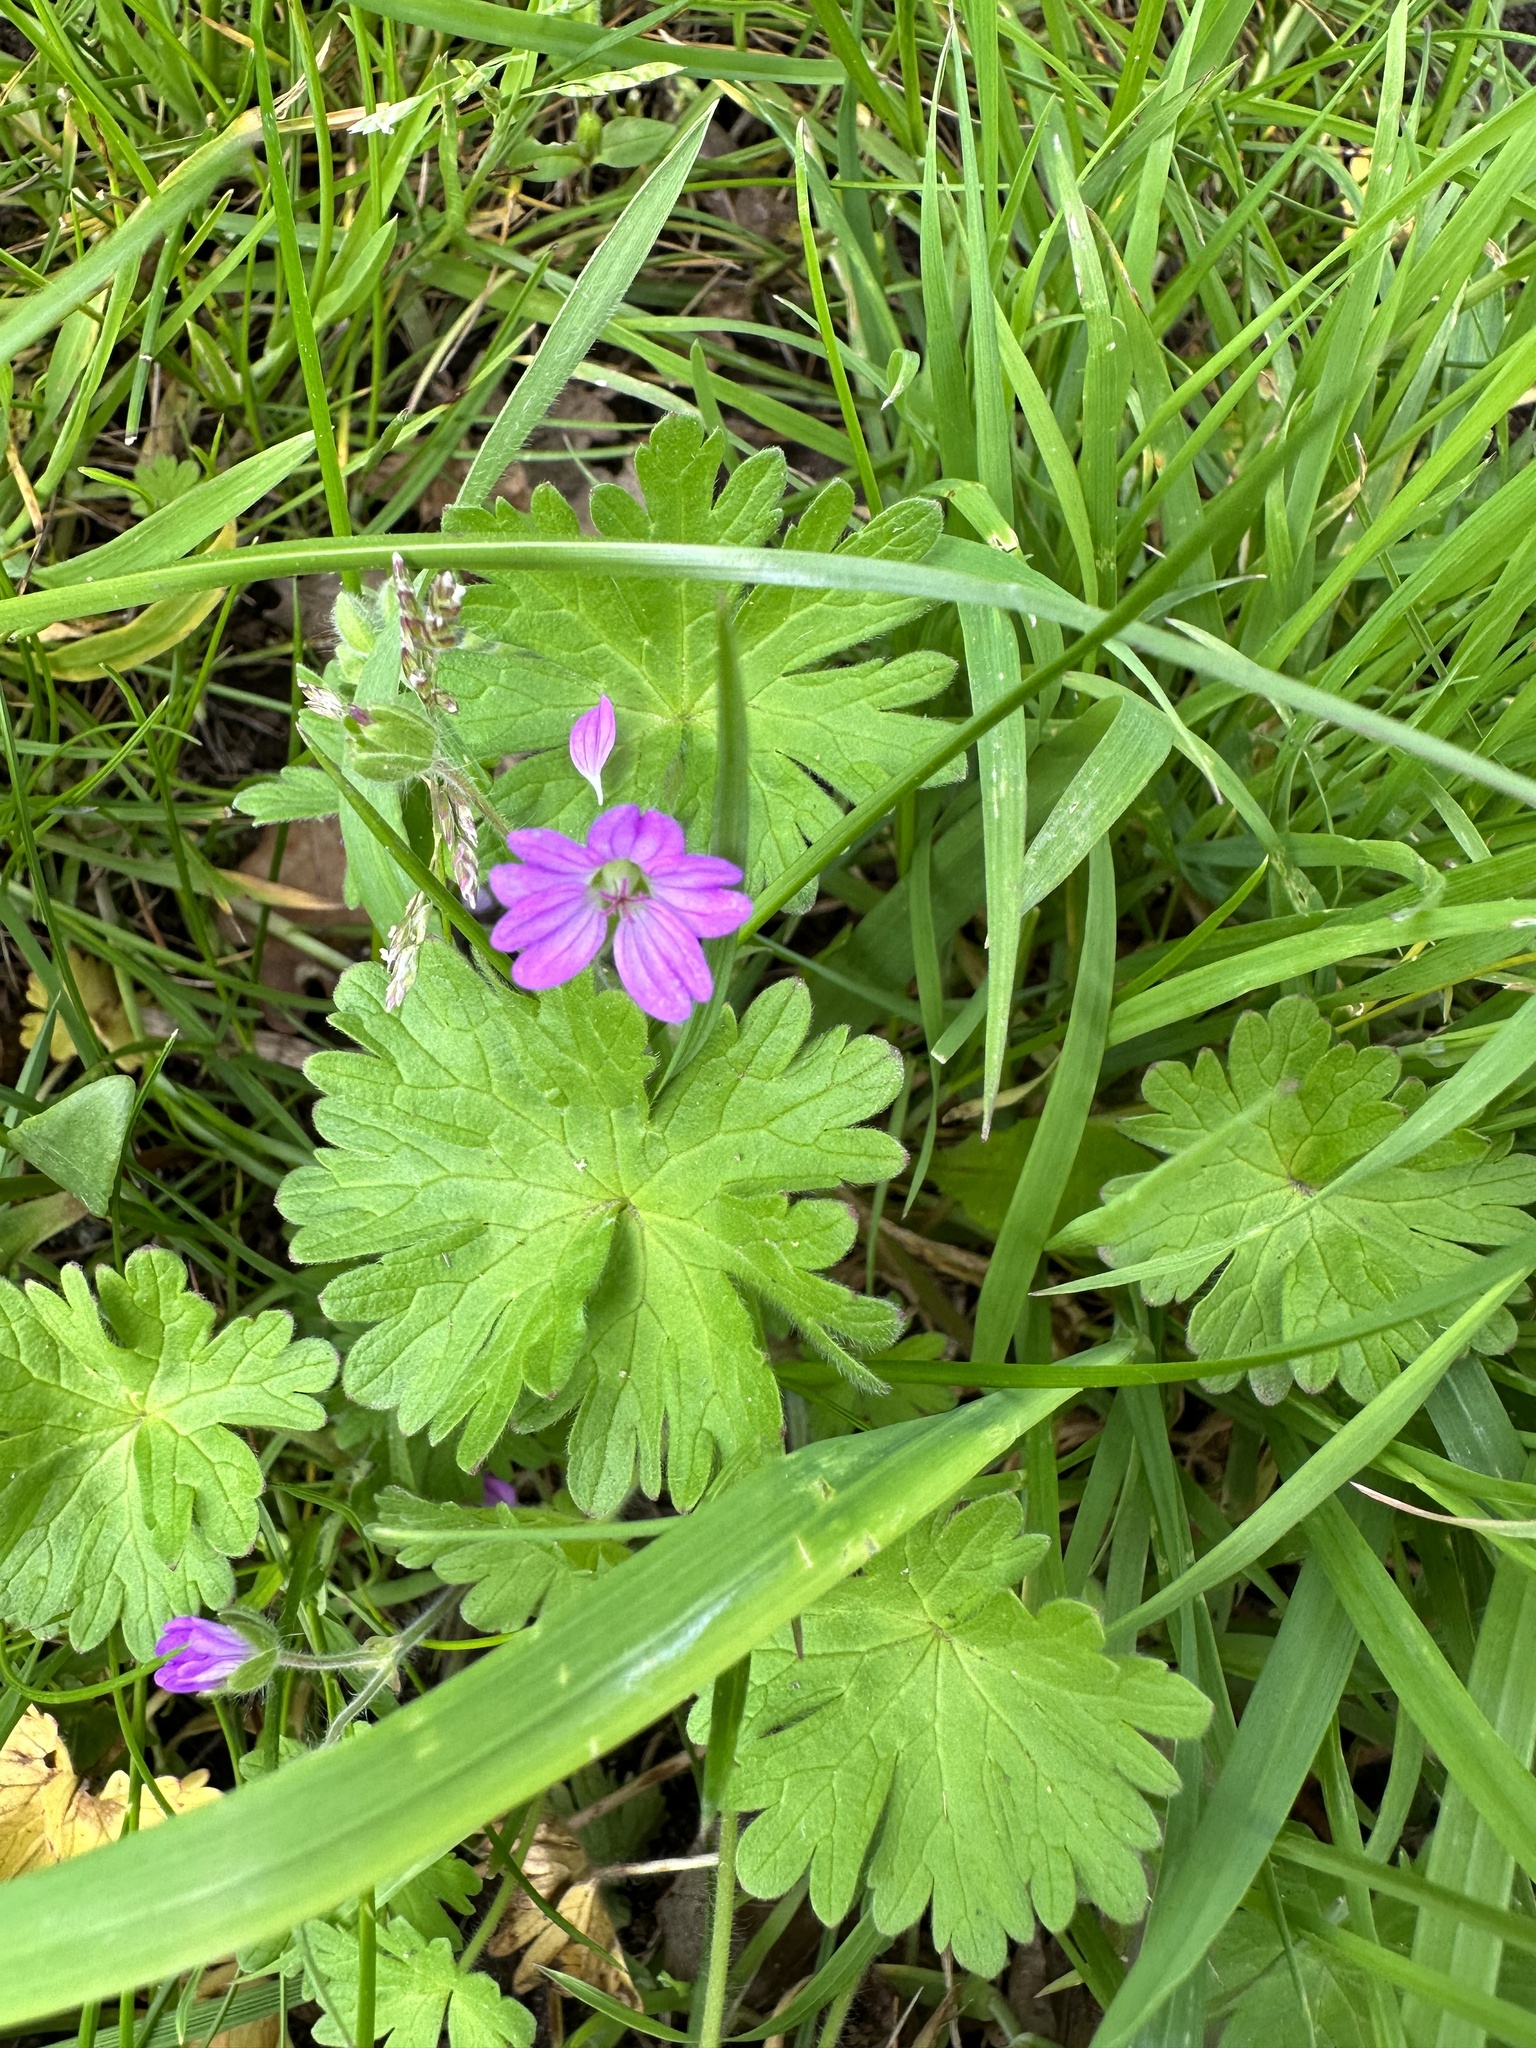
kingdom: Plantae
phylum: Tracheophyta
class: Magnoliopsida
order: Geraniales
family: Geraniaceae
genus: Geranium
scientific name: Geranium molle
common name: Dove's-foot crane's-bill
